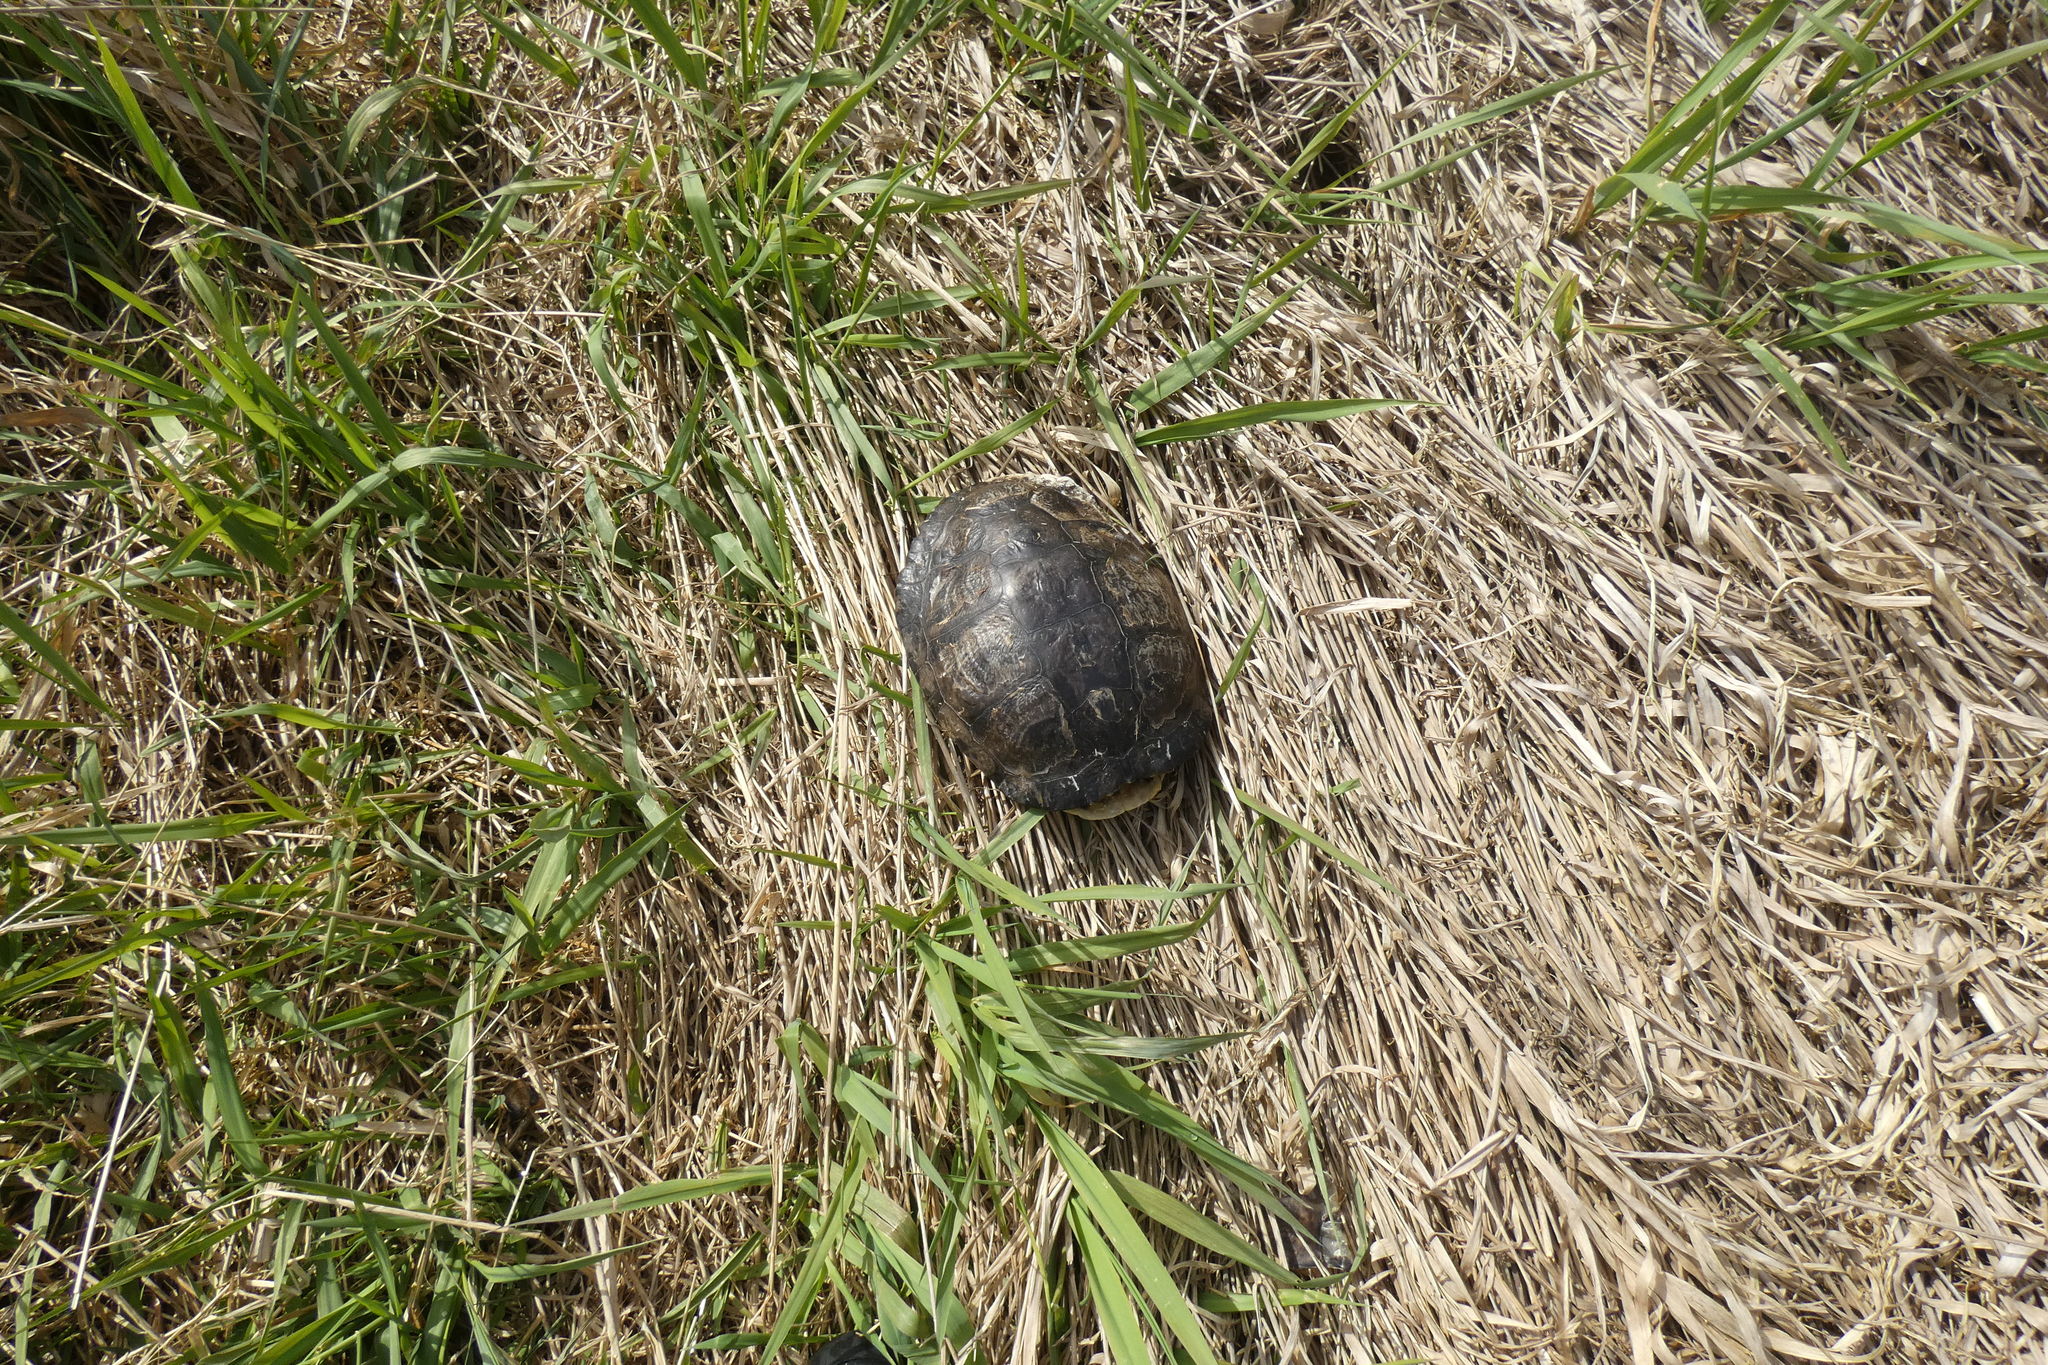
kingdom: Animalia
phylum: Chordata
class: Testudines
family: Emydidae
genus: Trachemys
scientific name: Trachemys scripta
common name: Slider
